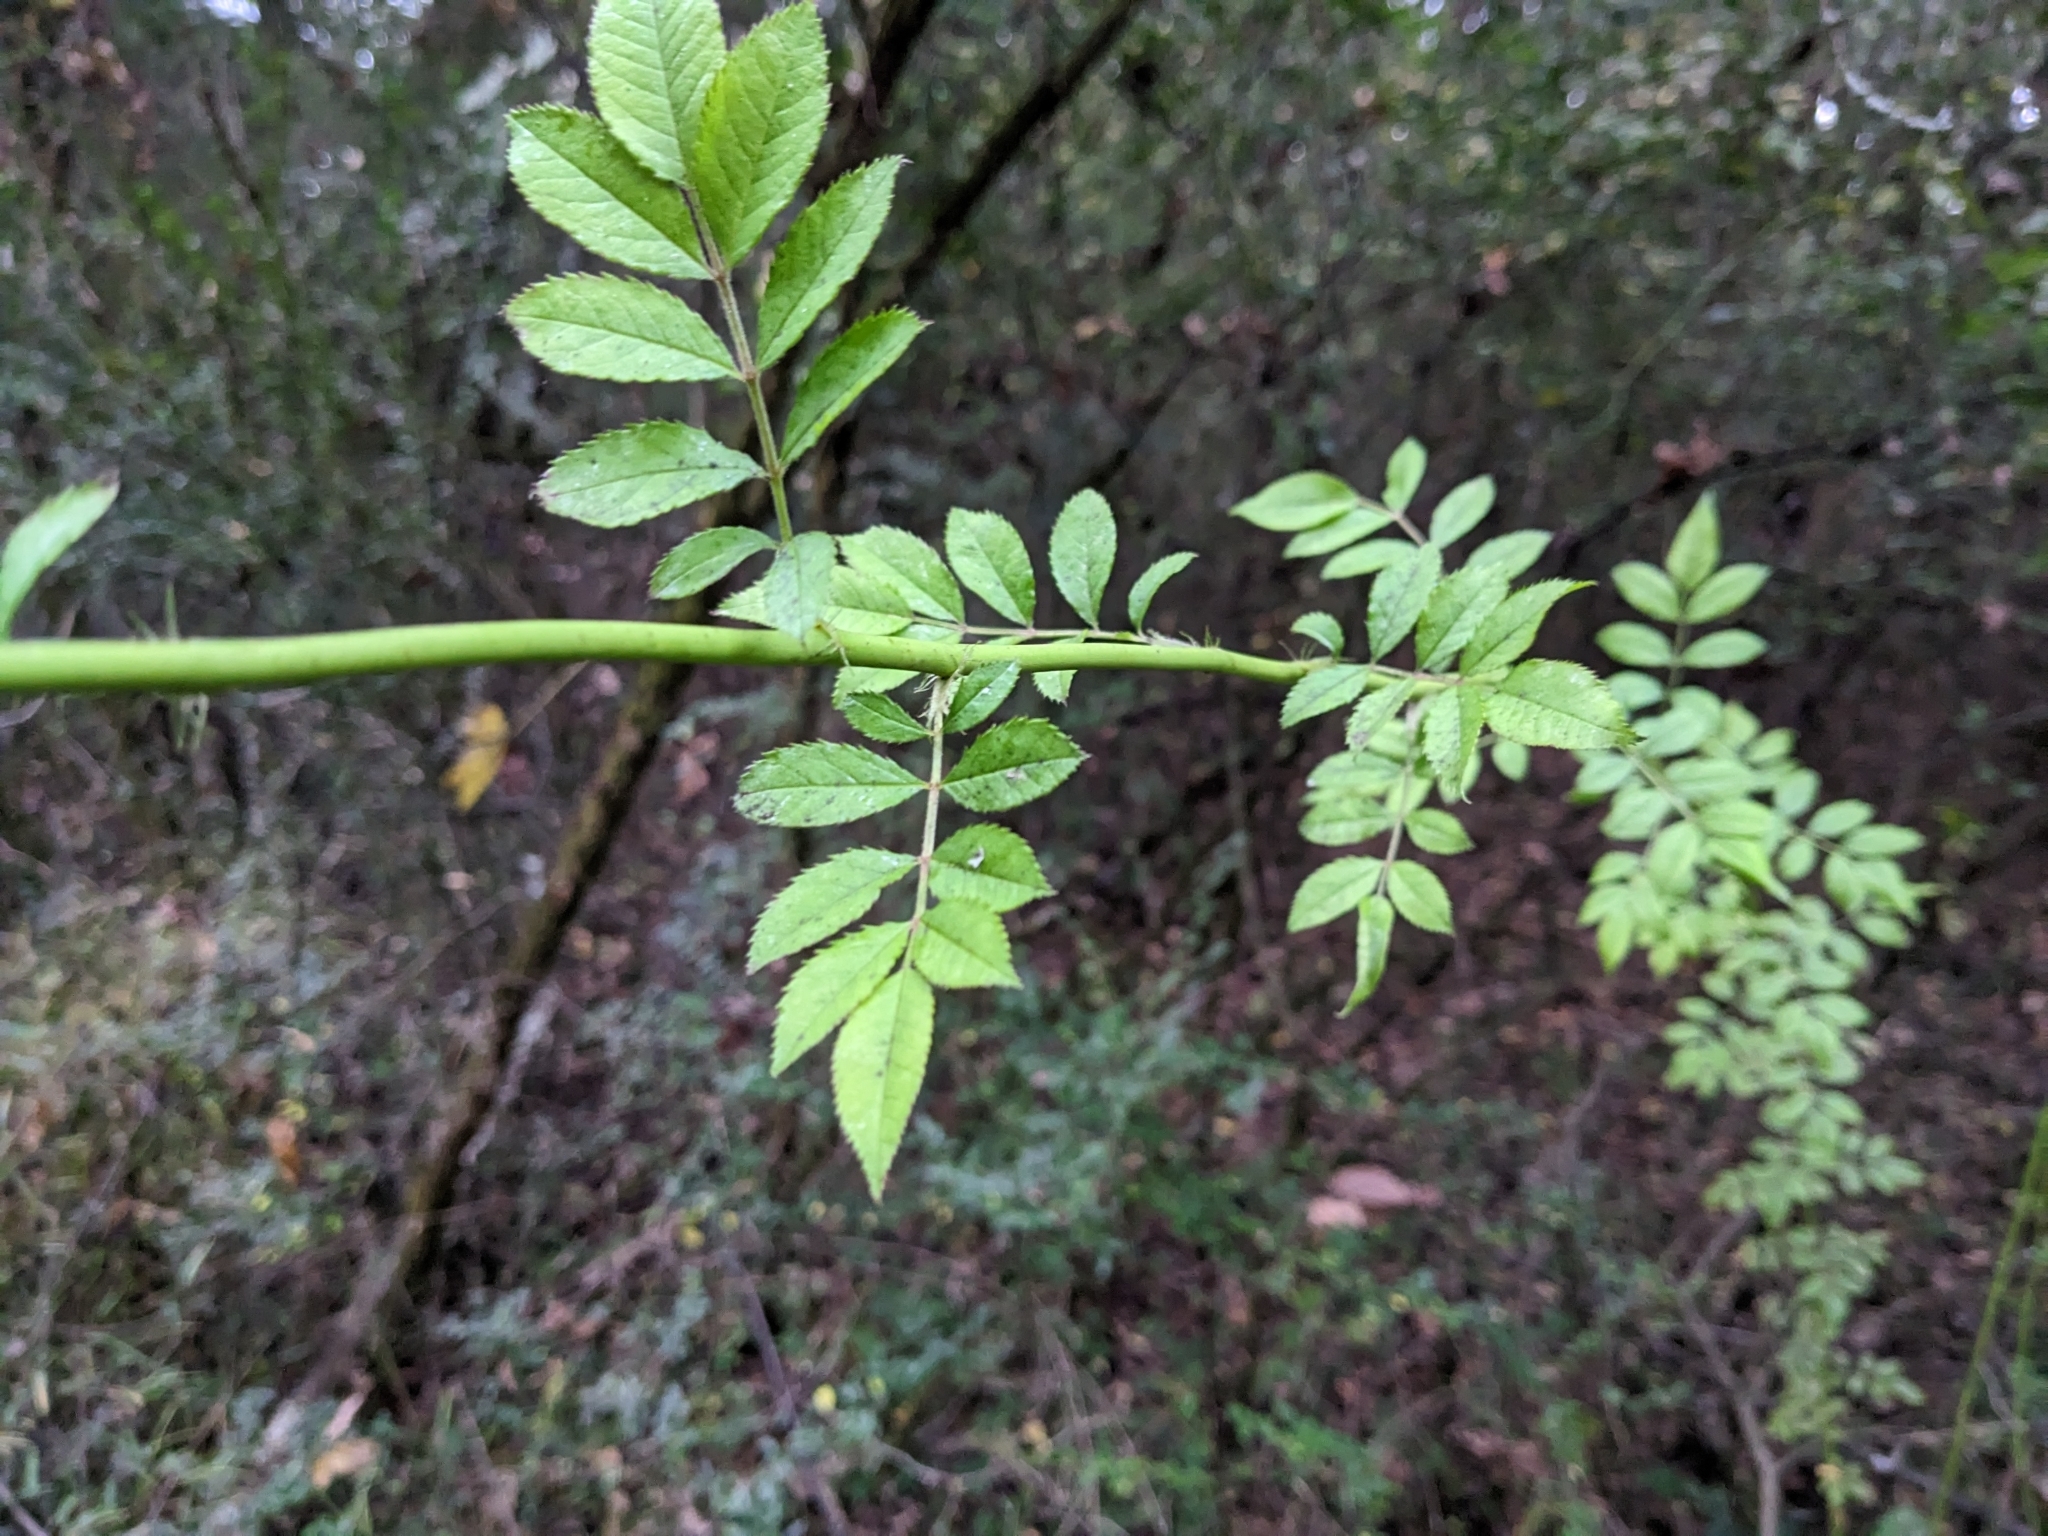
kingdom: Plantae
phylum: Tracheophyta
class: Magnoliopsida
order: Rosales
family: Rosaceae
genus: Rosa
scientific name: Rosa multiflora
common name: Multiflora rose
